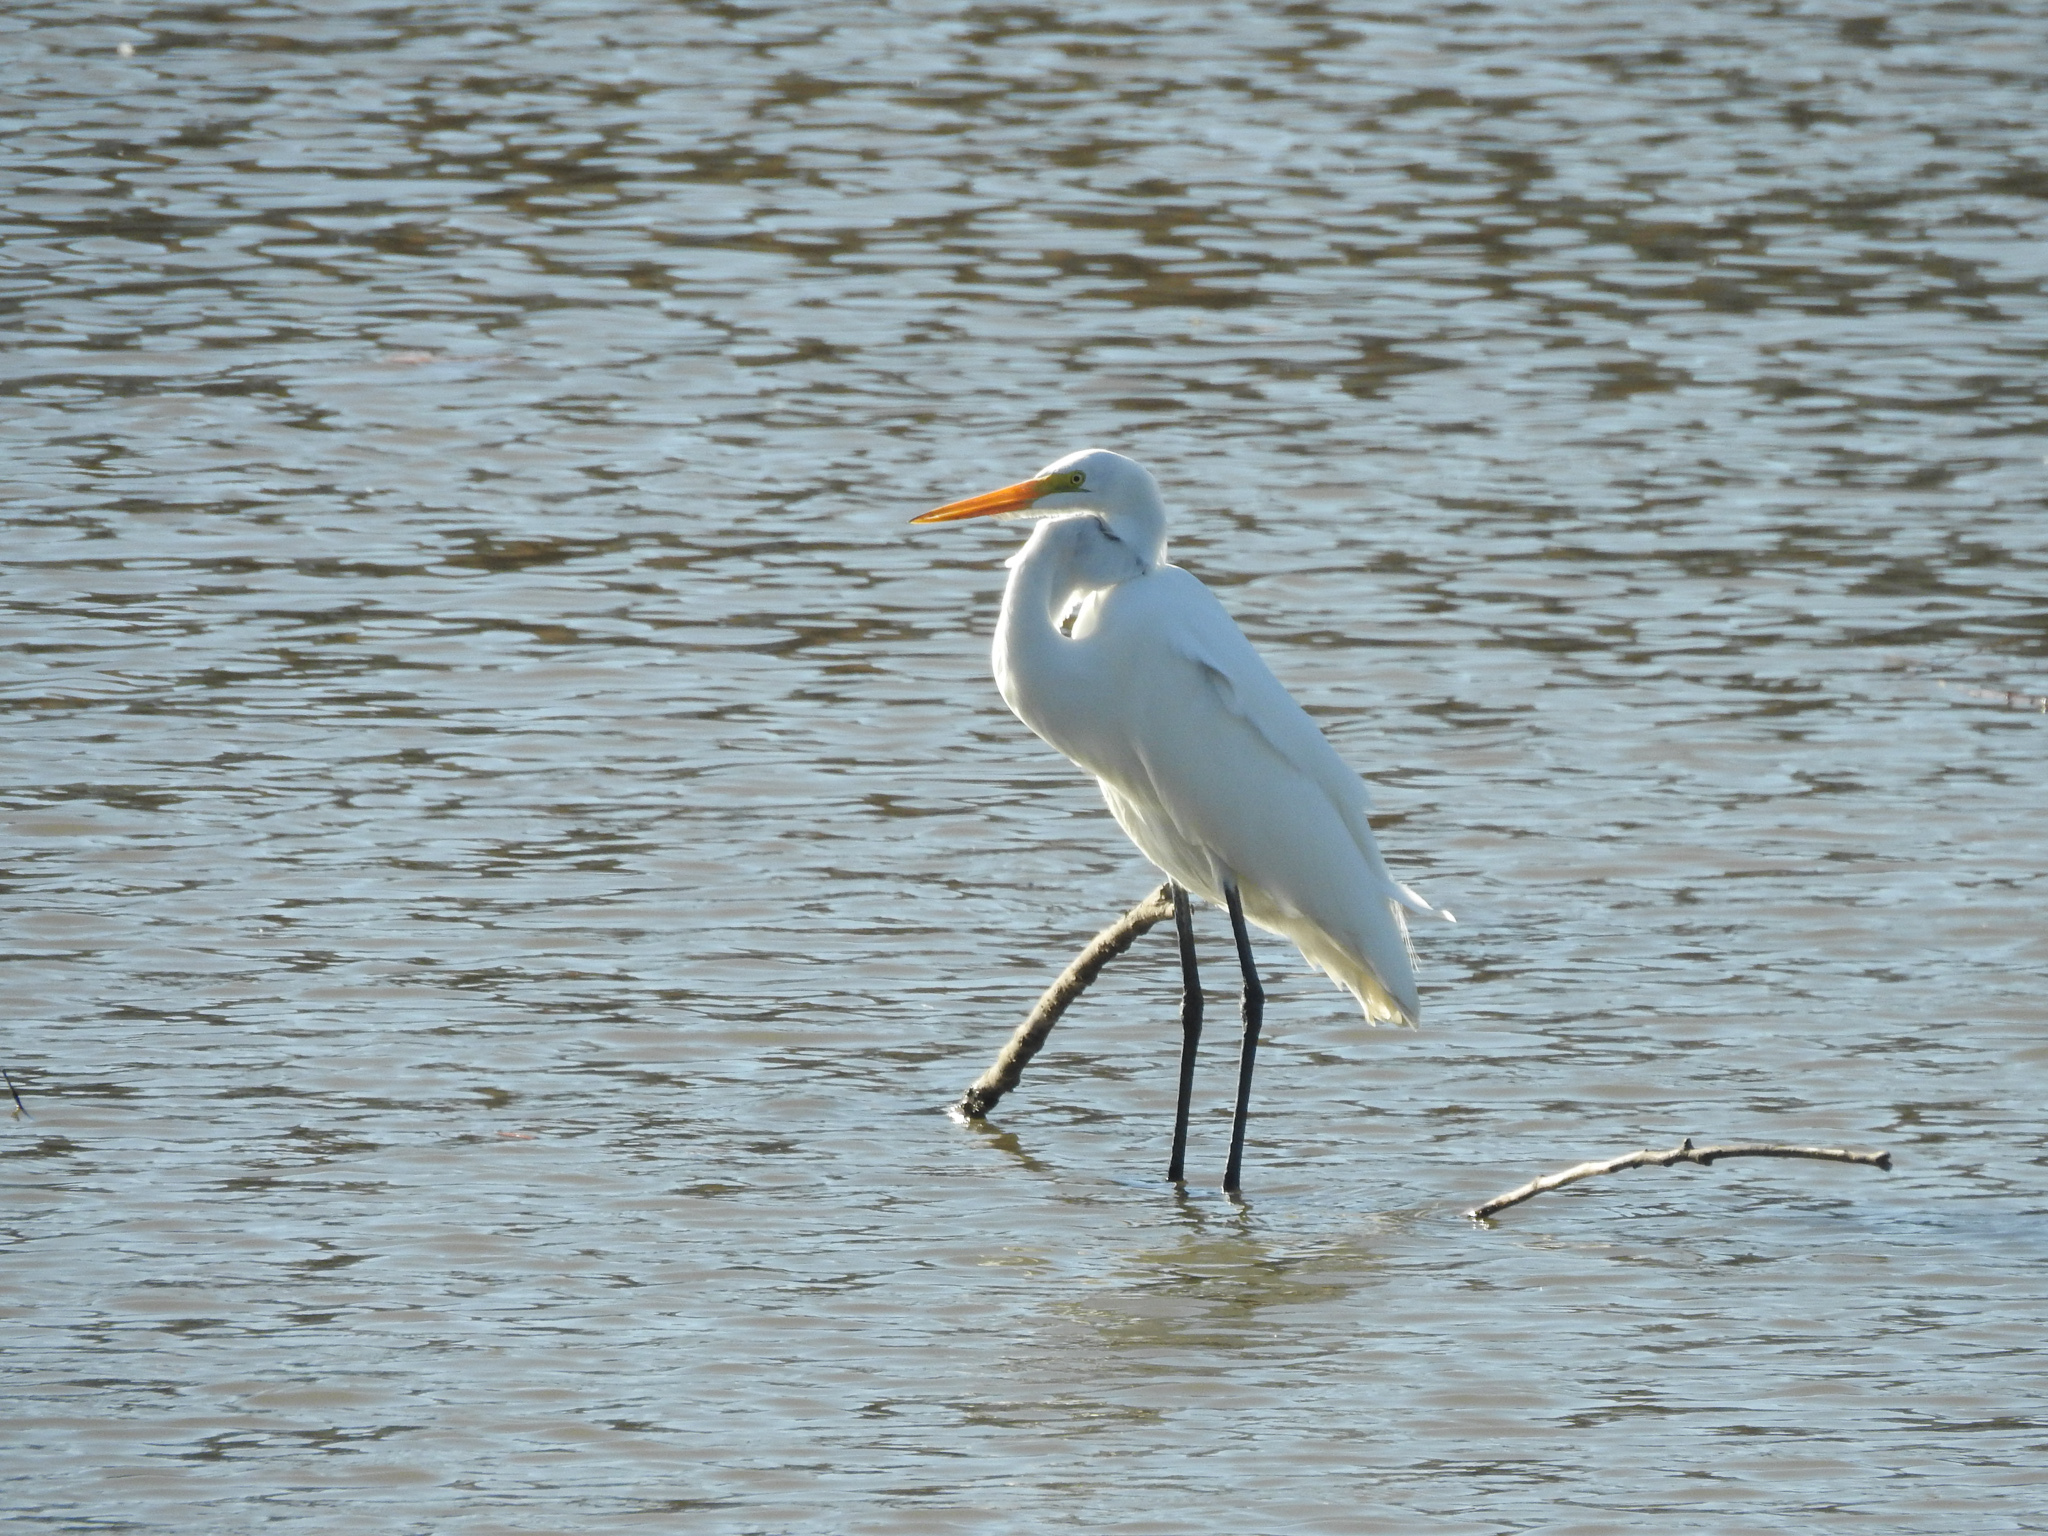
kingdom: Animalia
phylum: Chordata
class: Aves
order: Pelecaniformes
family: Ardeidae
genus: Ardea
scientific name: Ardea alba
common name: Great egret
